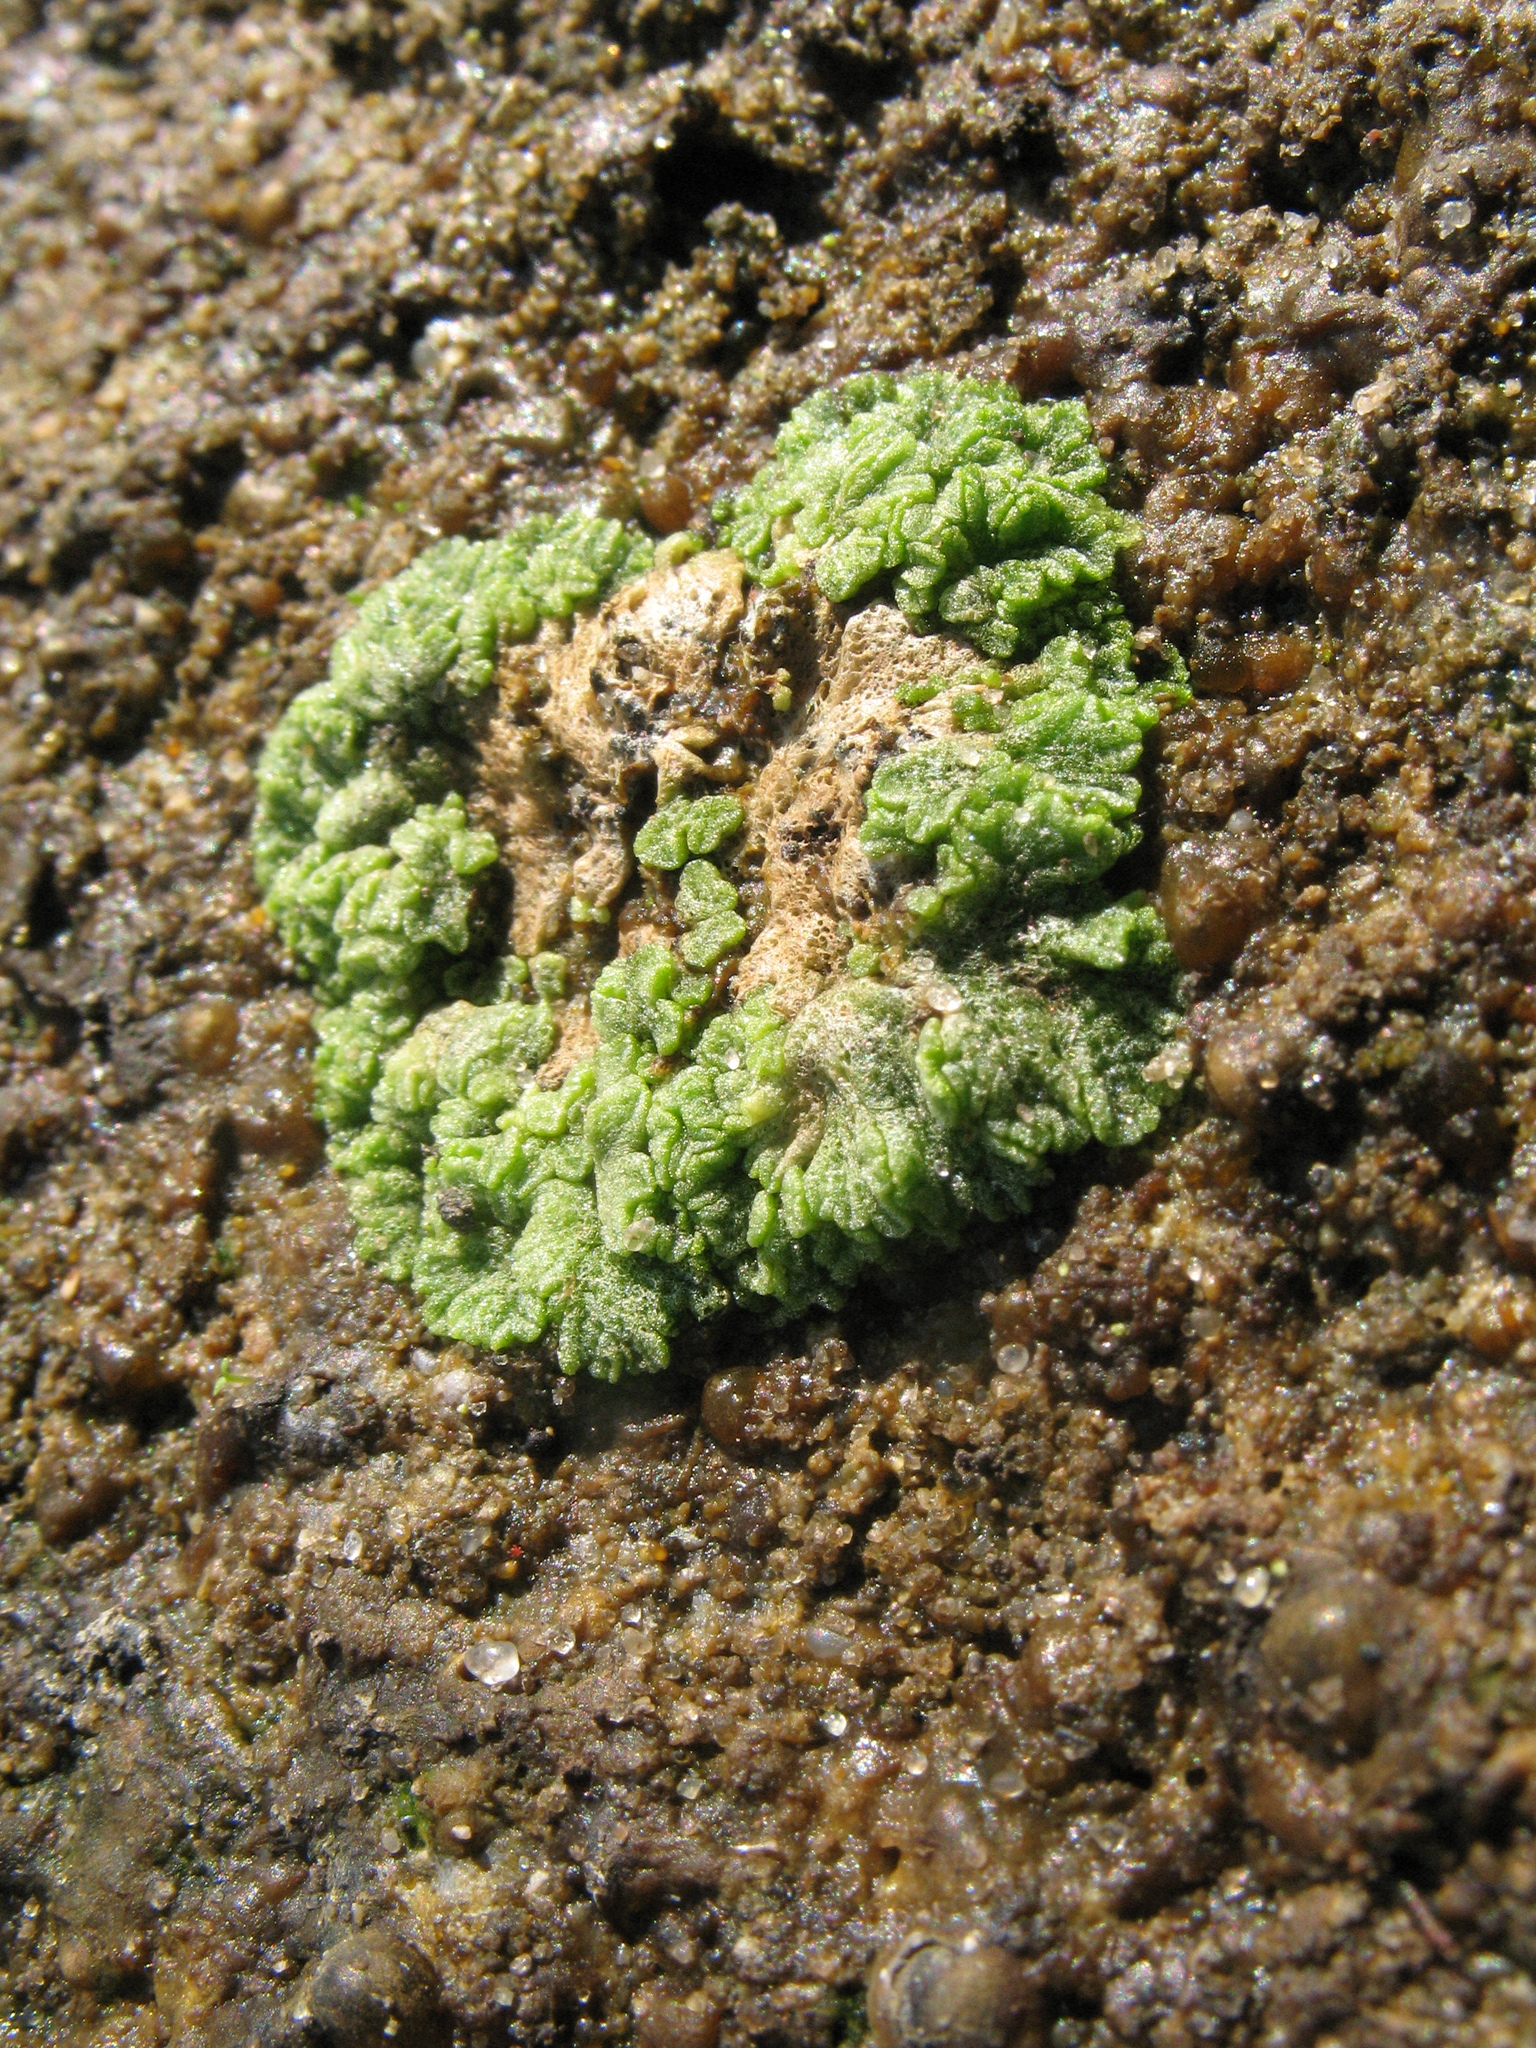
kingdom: Plantae
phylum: Marchantiophyta
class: Marchantiopsida
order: Marchantiales
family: Ricciaceae
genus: Riccia
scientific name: Riccia cavernosa
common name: Cavernous crystalwort
